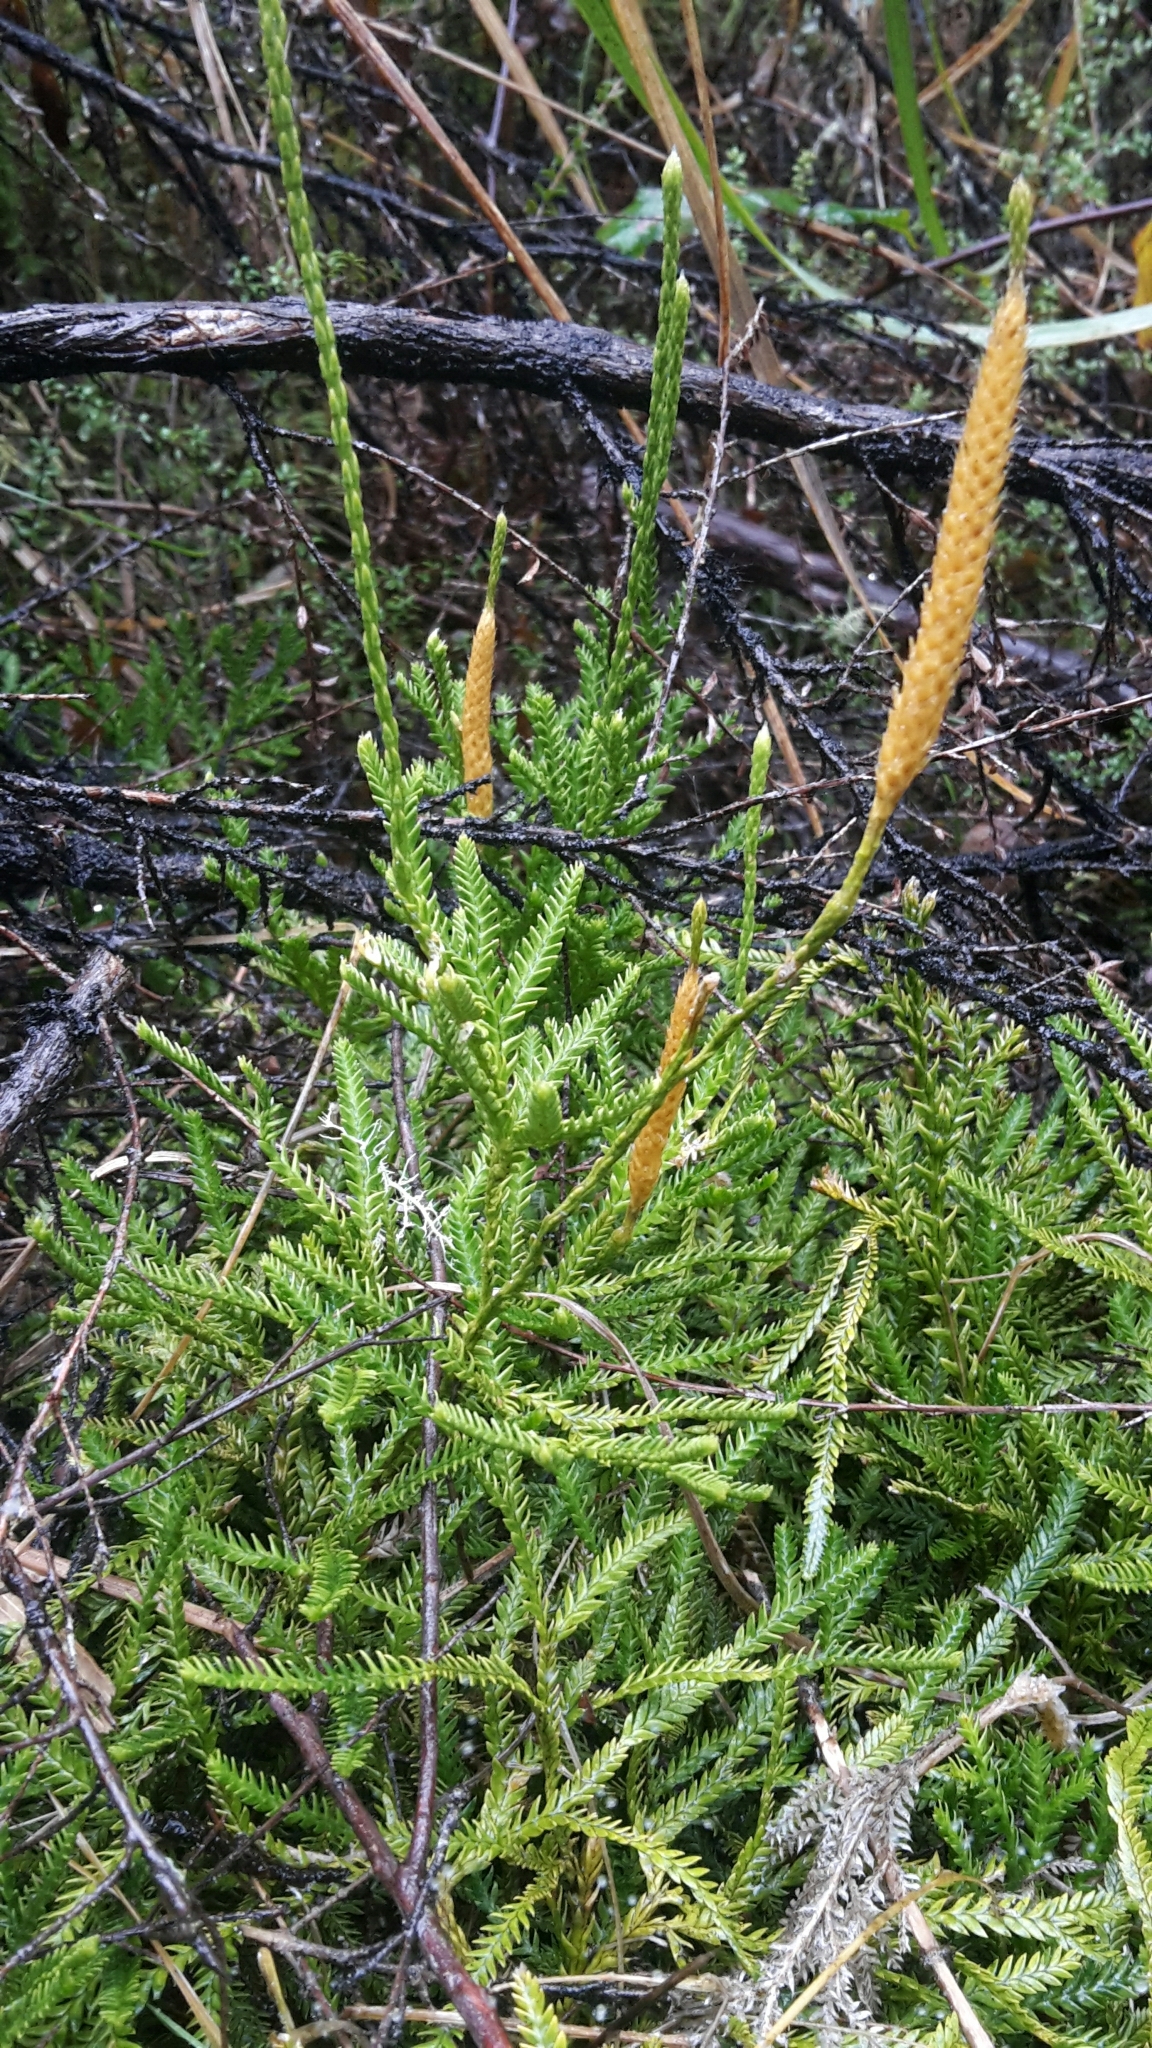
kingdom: Plantae
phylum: Tracheophyta
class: Lycopodiopsida
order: Lycopodiales
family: Lycopodiaceae
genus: Diphasium
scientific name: Diphasium scariosum
